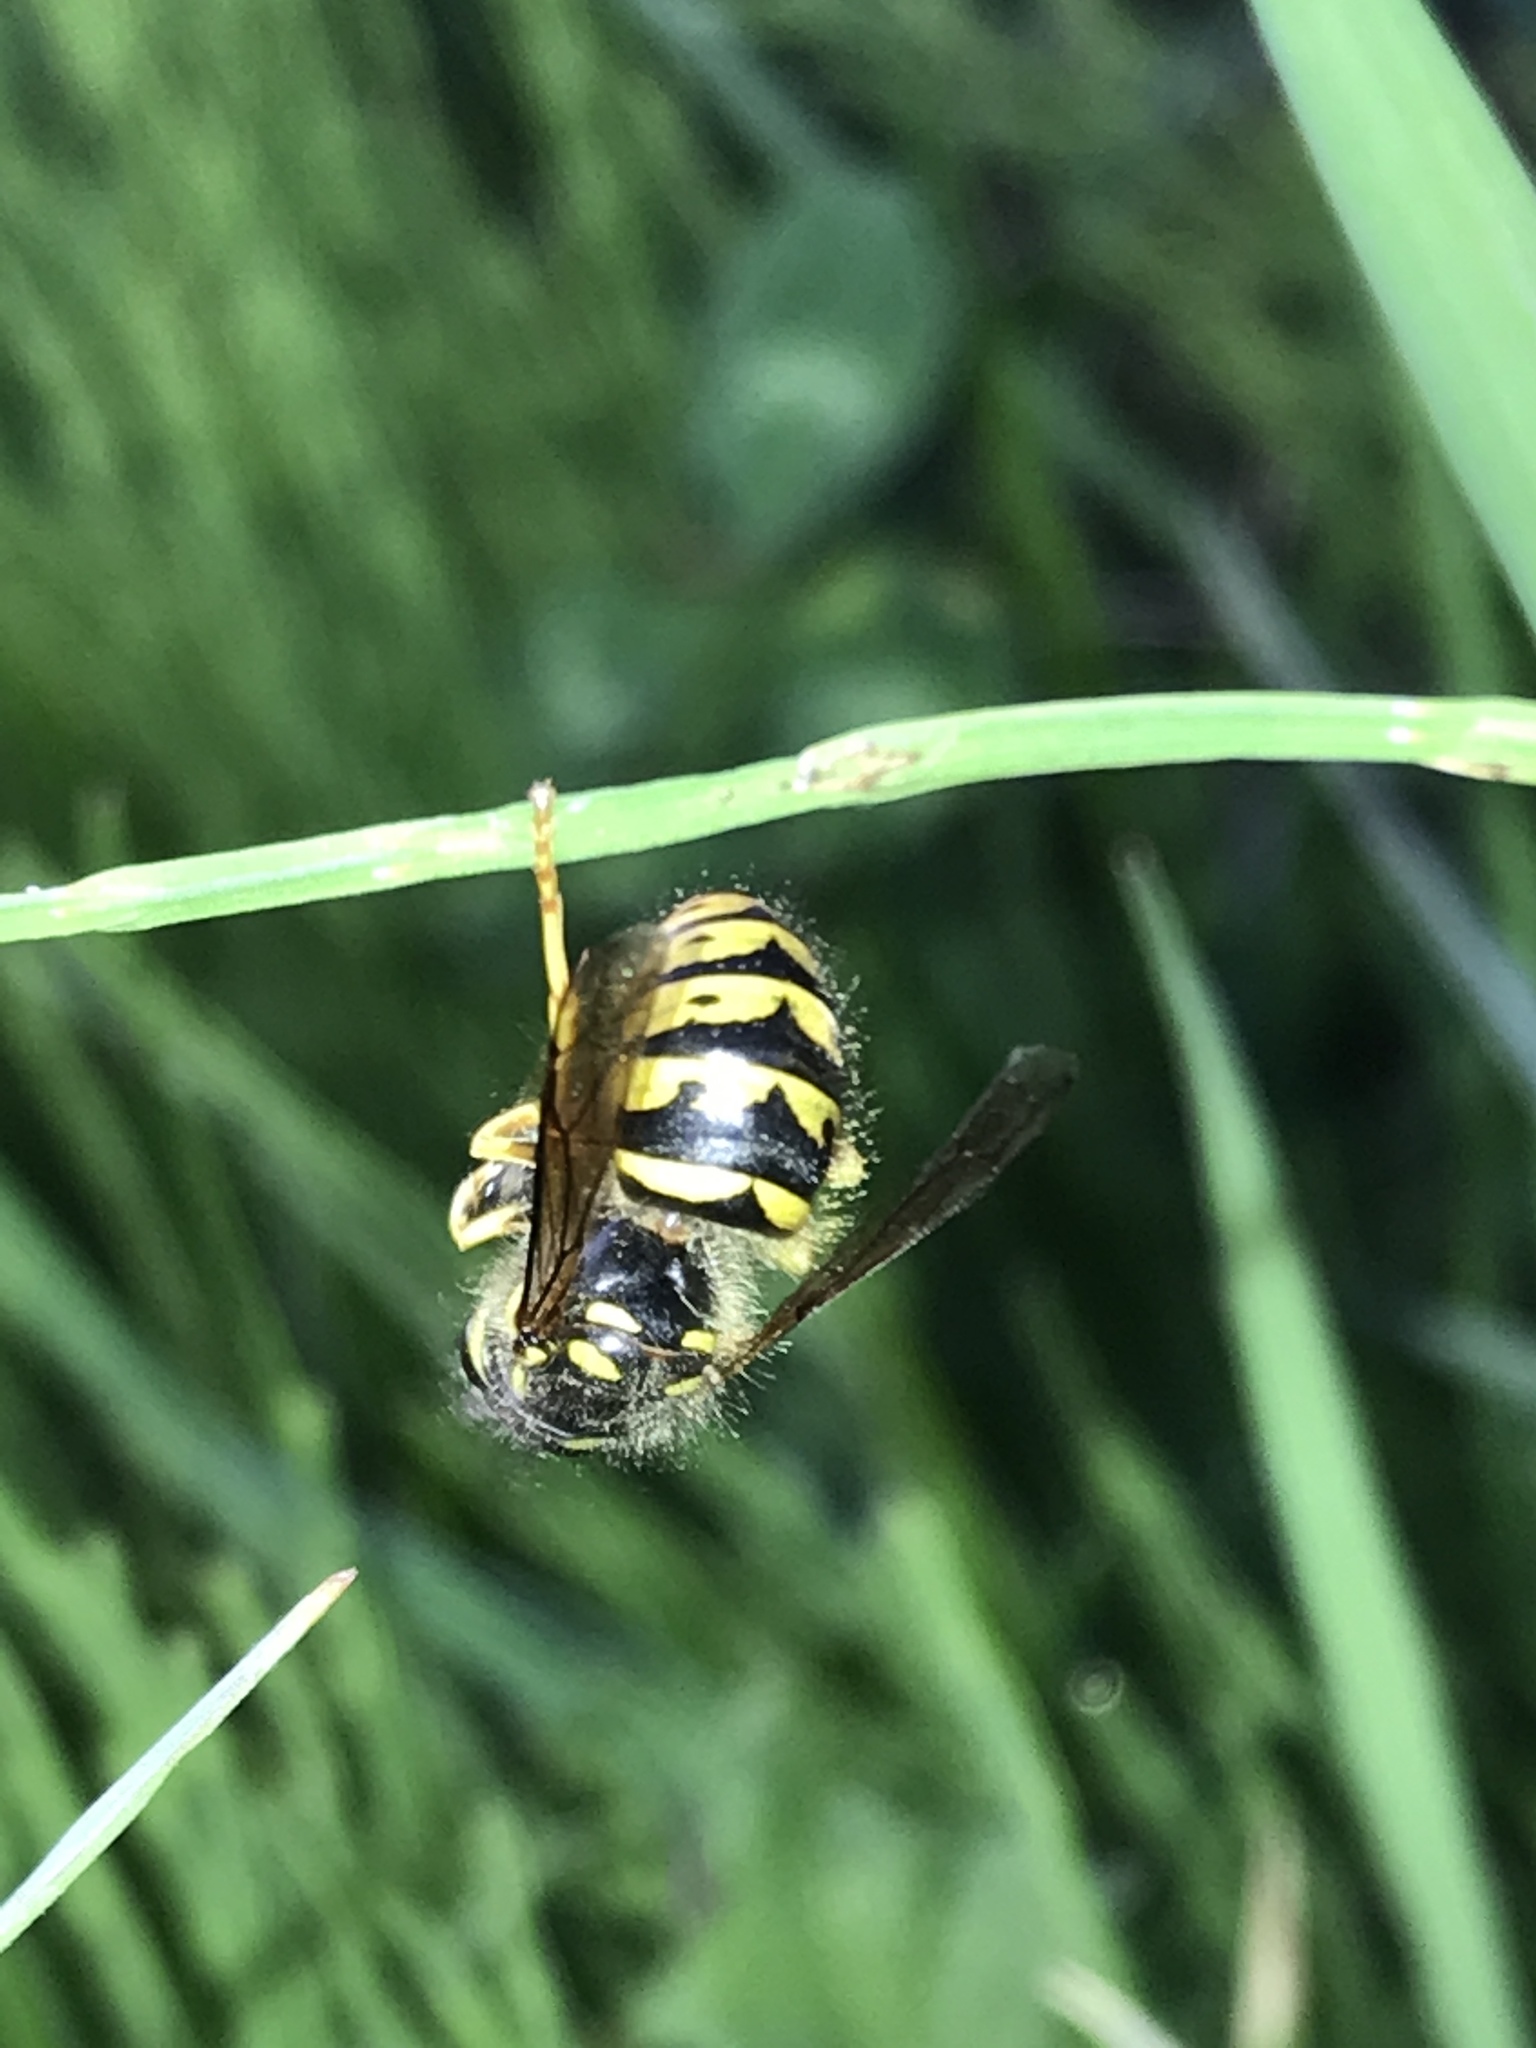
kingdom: Animalia
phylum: Arthropoda
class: Insecta
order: Hymenoptera
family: Vespidae
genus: Dolichovespula
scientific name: Dolichovespula arenaria
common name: Aerial yellowjacket
